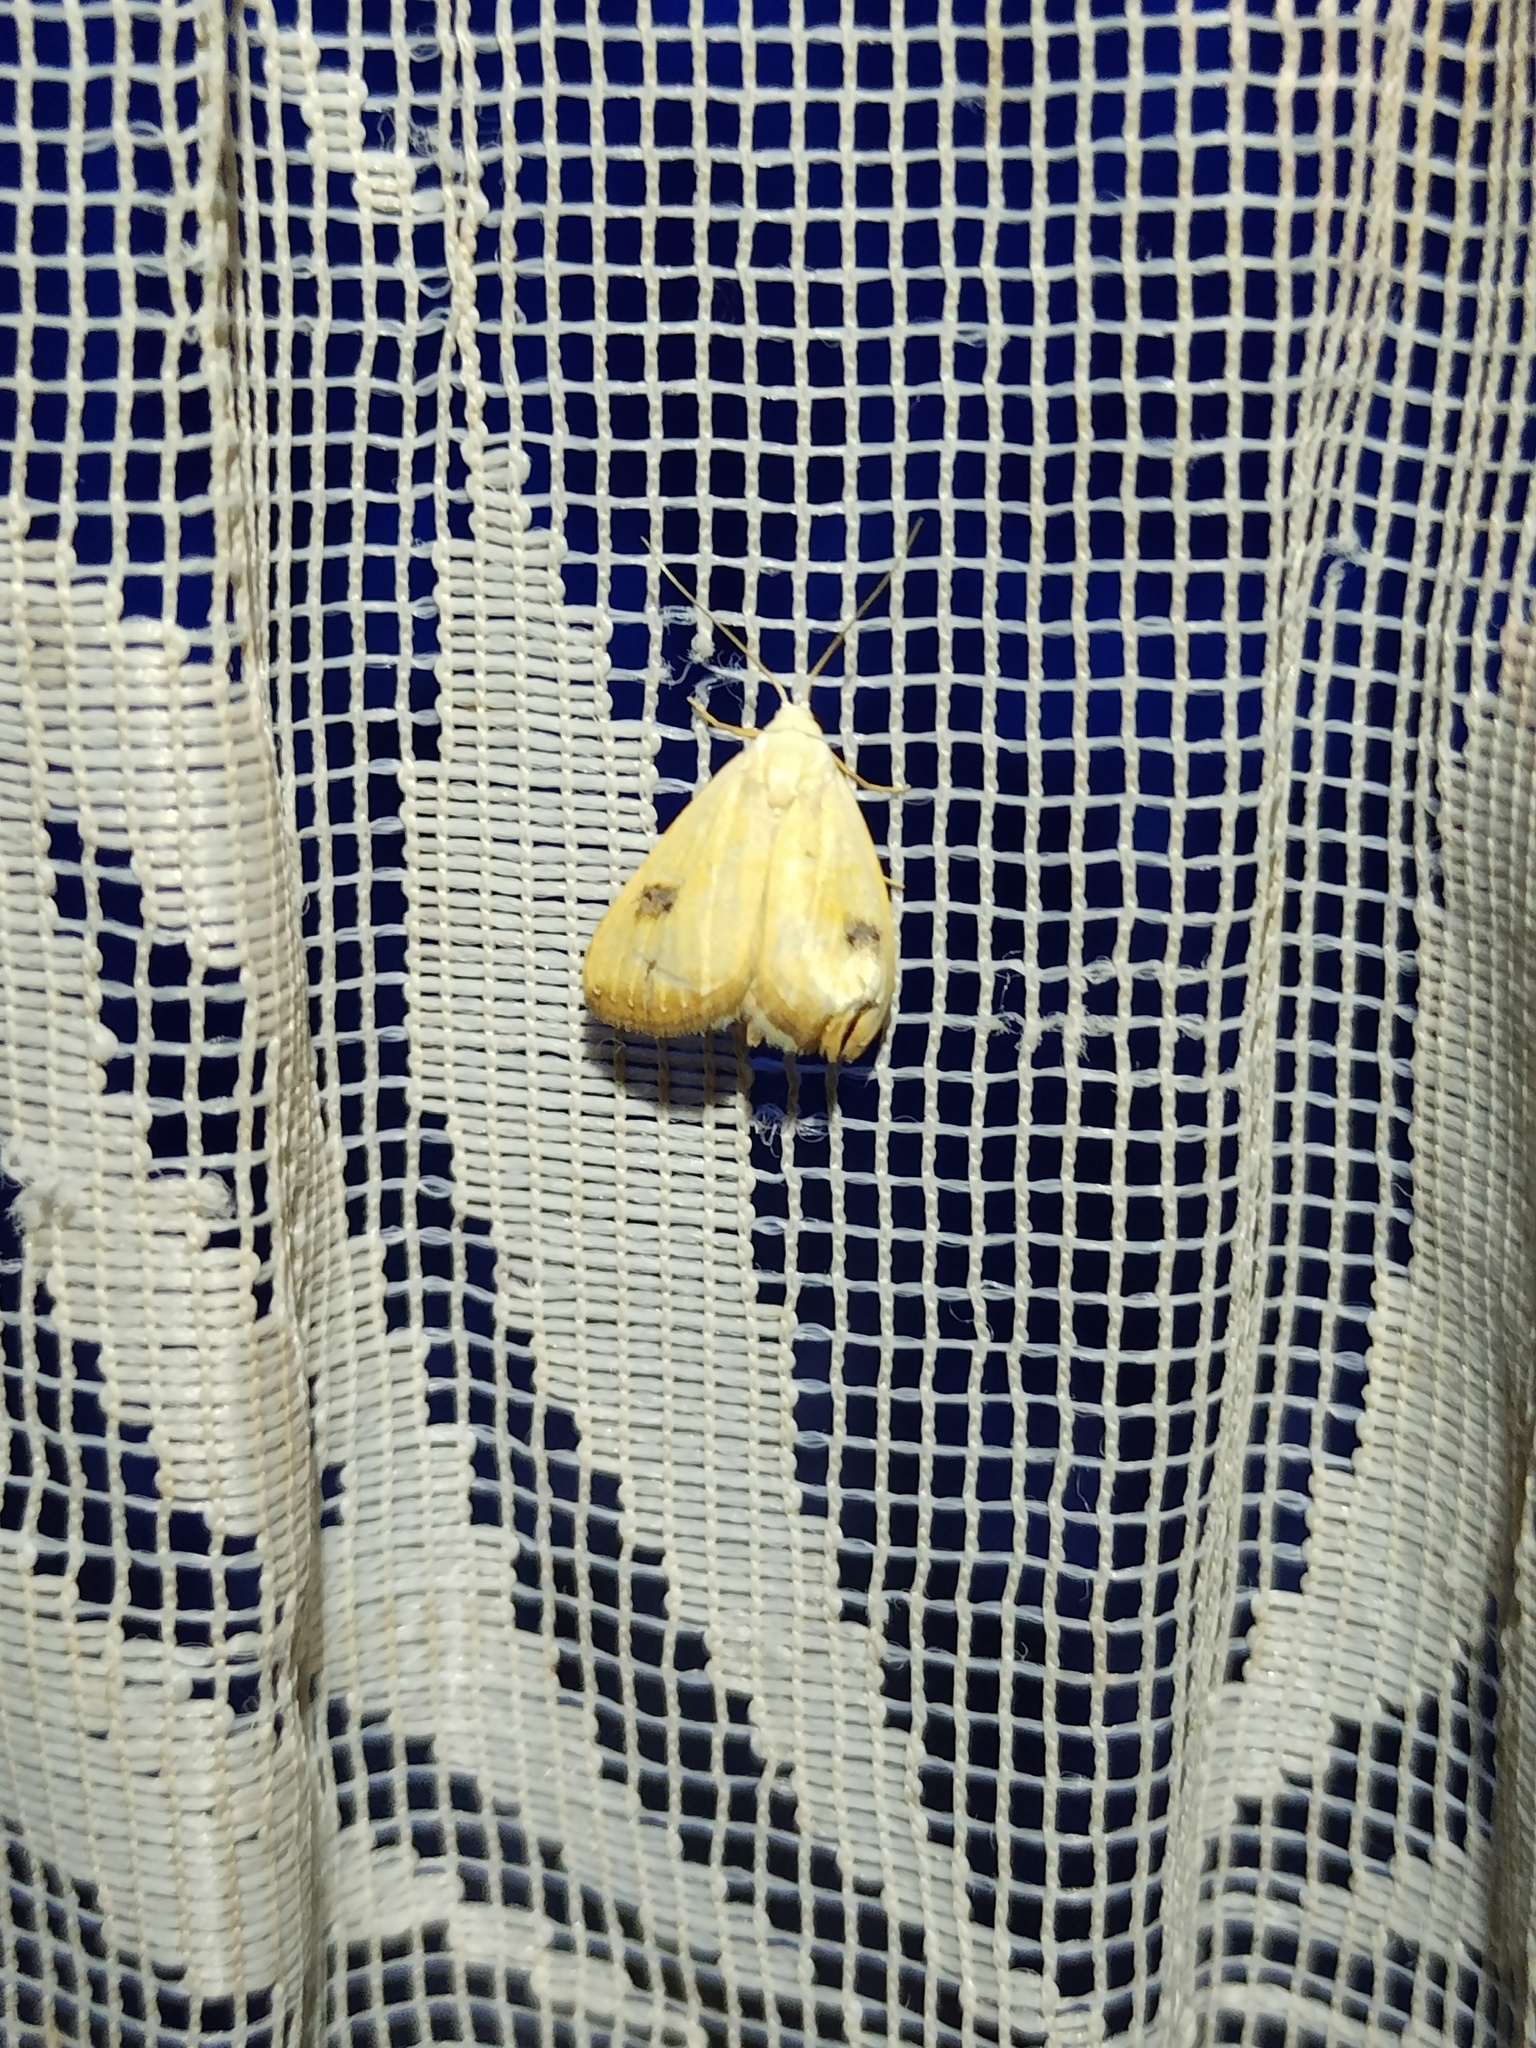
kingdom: Animalia
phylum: Arthropoda
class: Insecta
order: Lepidoptera
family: Erebidae
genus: Rivula
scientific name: Rivula sericealis
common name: Straw dot
